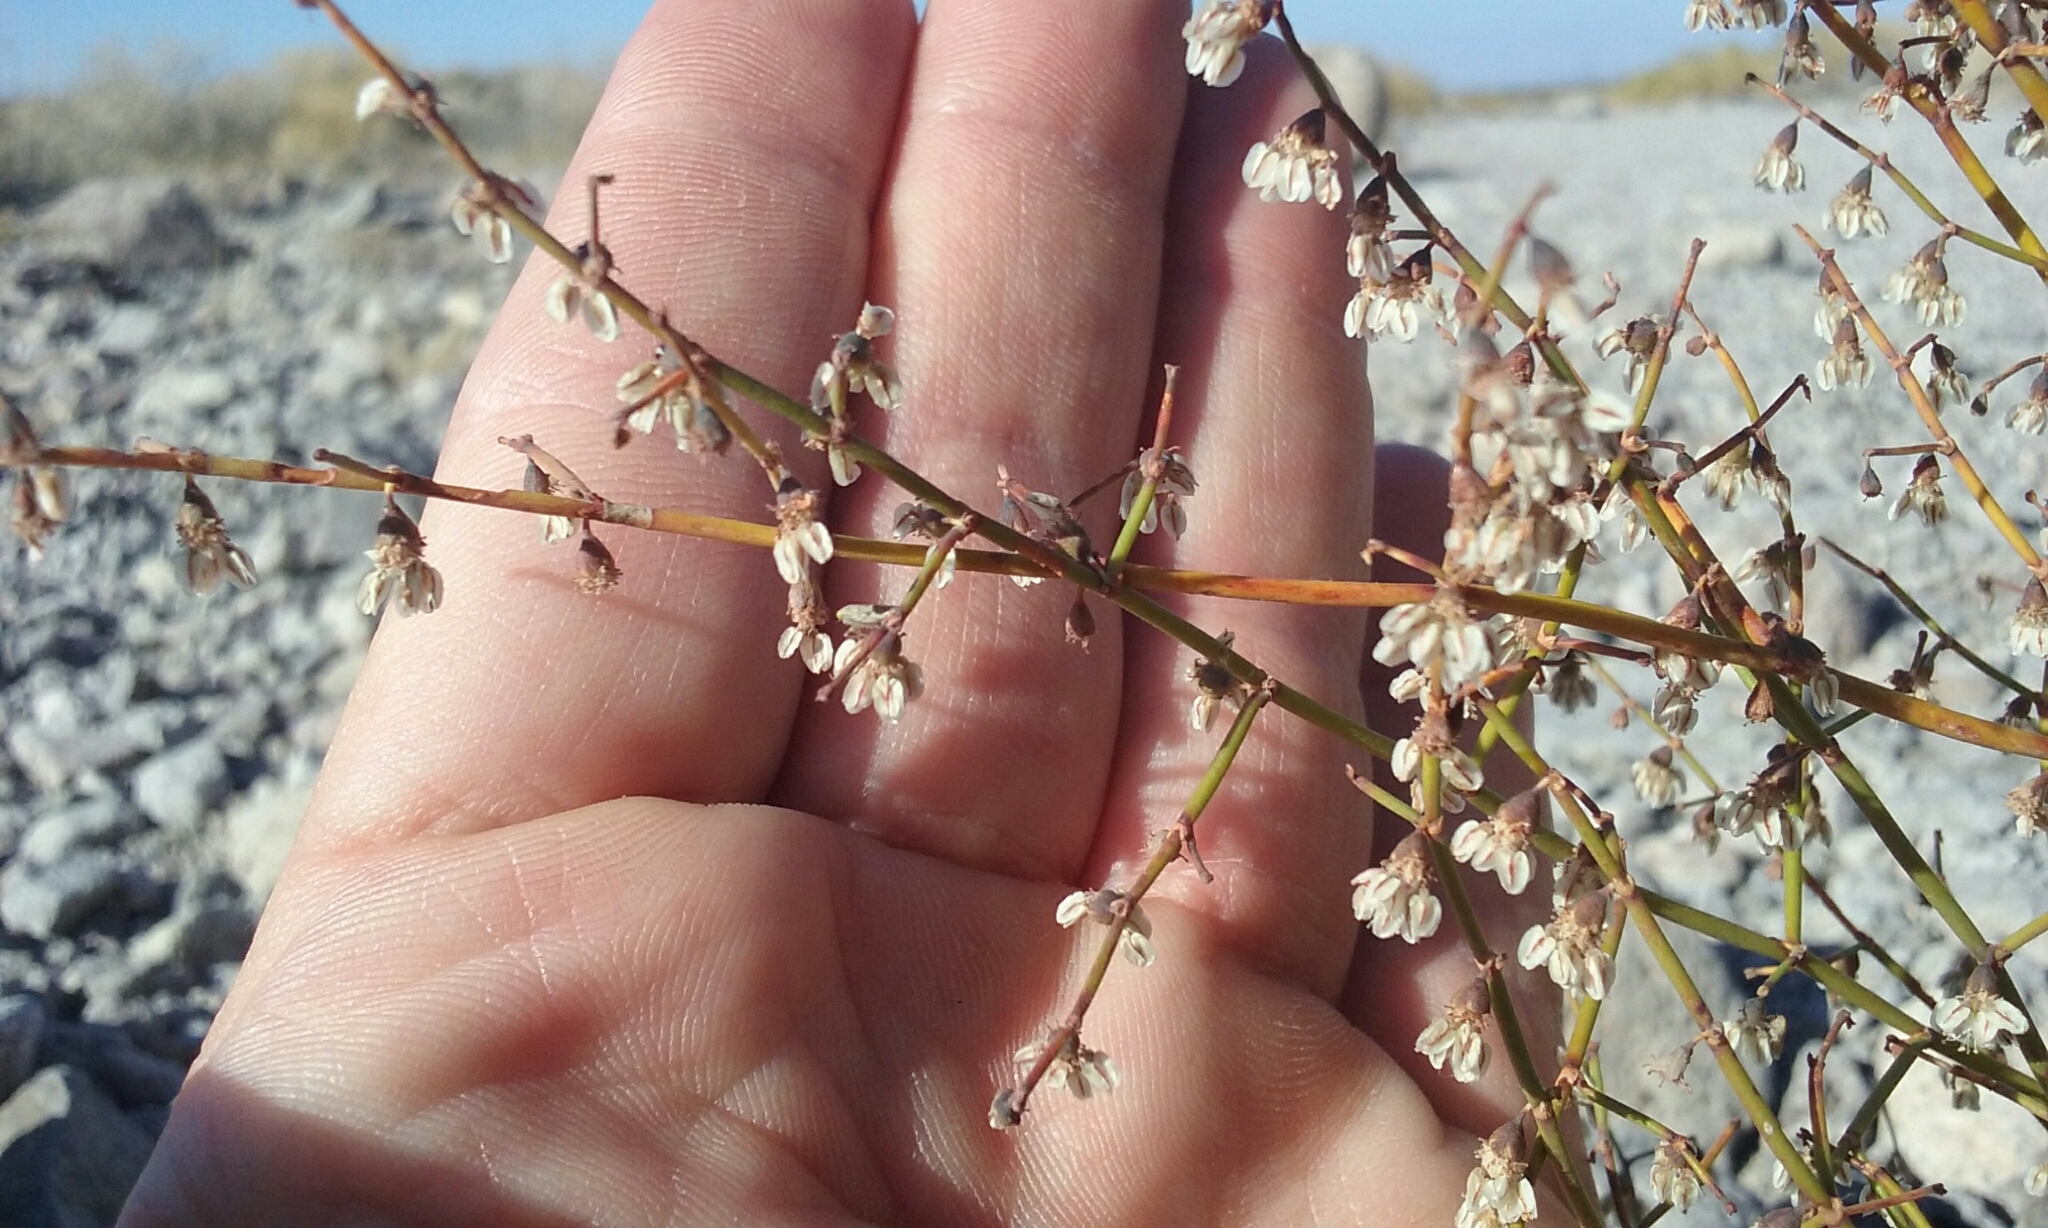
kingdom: Plantae
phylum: Tracheophyta
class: Magnoliopsida
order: Caryophyllales
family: Polygonaceae
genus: Eriogonum
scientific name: Eriogonum deflexum
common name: Skeleton-weed
